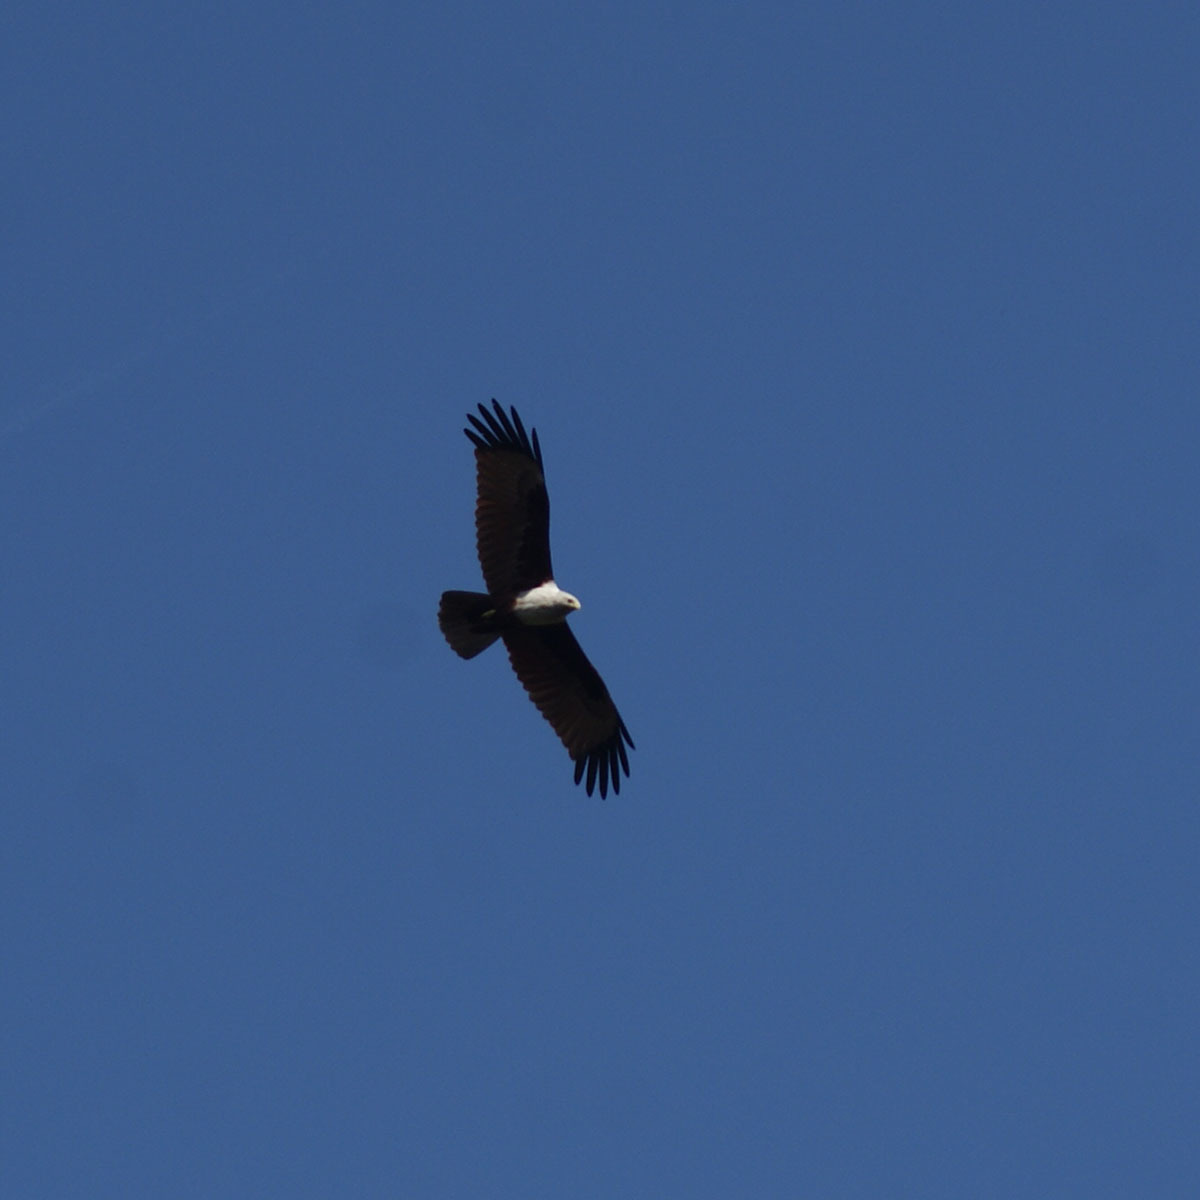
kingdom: Animalia
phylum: Chordata
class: Aves
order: Accipitriformes
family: Accipitridae
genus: Haliastur
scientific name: Haliastur indus
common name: Brahminy kite
